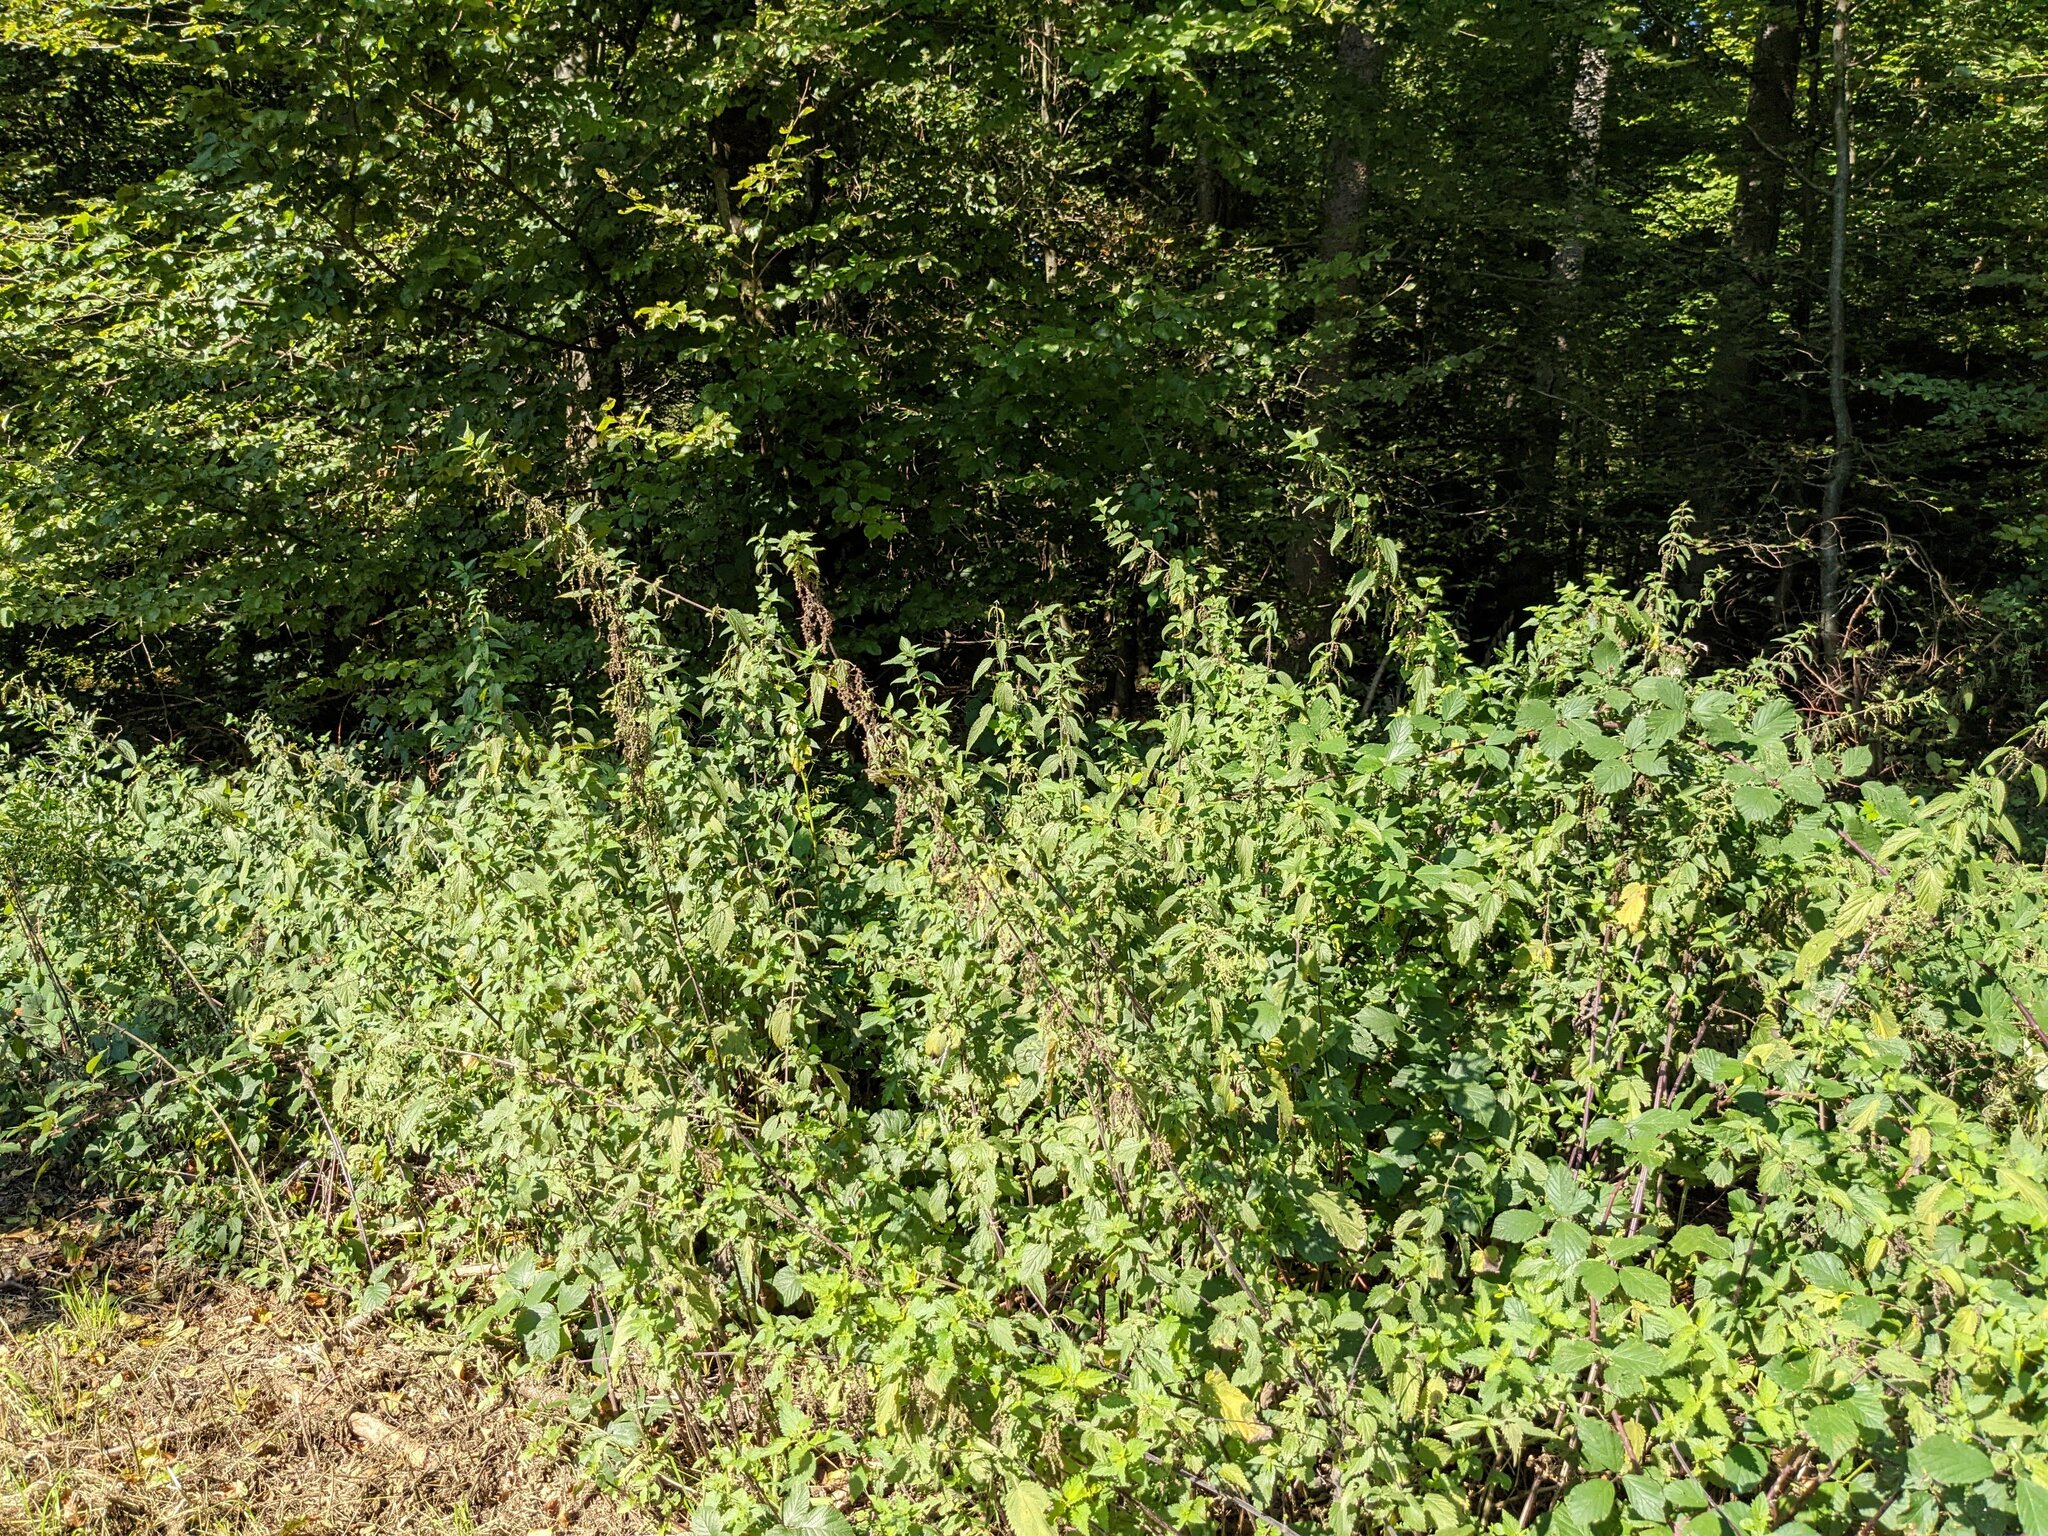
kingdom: Plantae
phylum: Tracheophyta
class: Magnoliopsida
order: Rosales
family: Urticaceae
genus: Urtica
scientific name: Urtica dioica
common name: Common nettle
